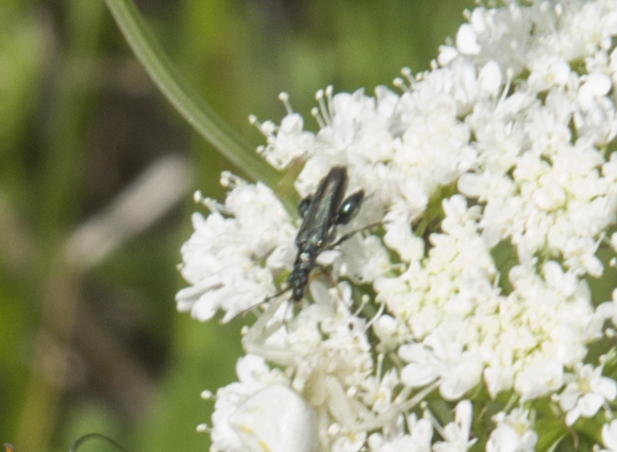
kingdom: Animalia
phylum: Arthropoda
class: Insecta
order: Coleoptera
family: Oedemeridae
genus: Oedemera
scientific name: Oedemera flavipes
